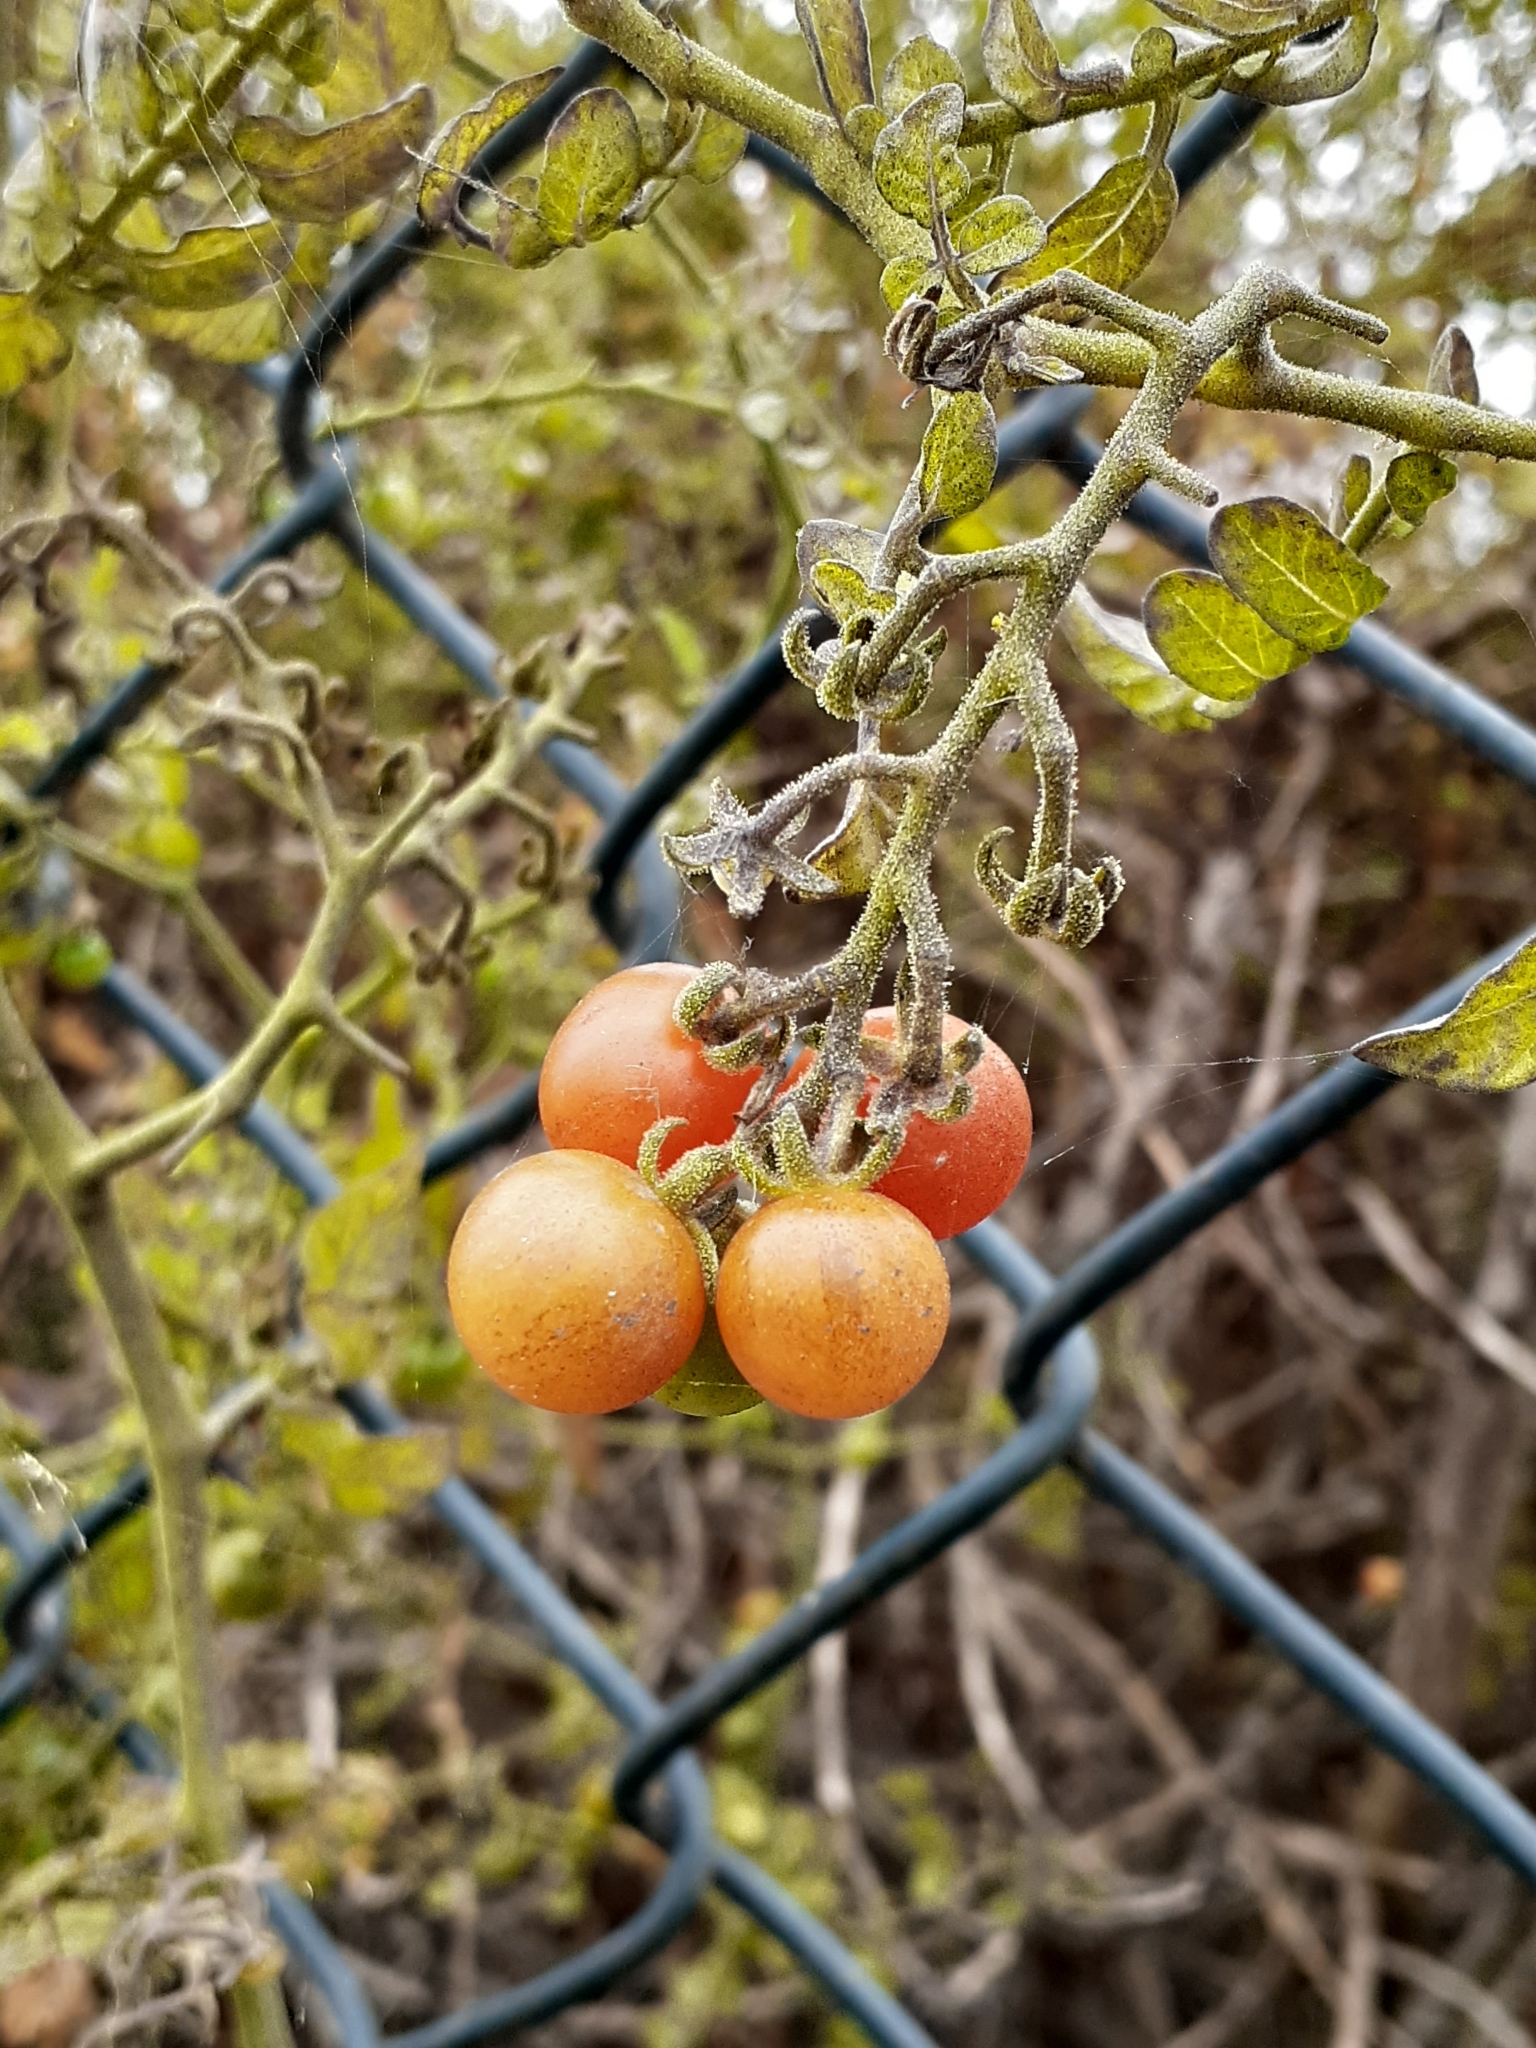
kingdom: Plantae
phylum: Tracheophyta
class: Magnoliopsida
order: Solanales
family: Solanaceae
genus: Solanum
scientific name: Solanum lycopersicum
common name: Garden tomato
